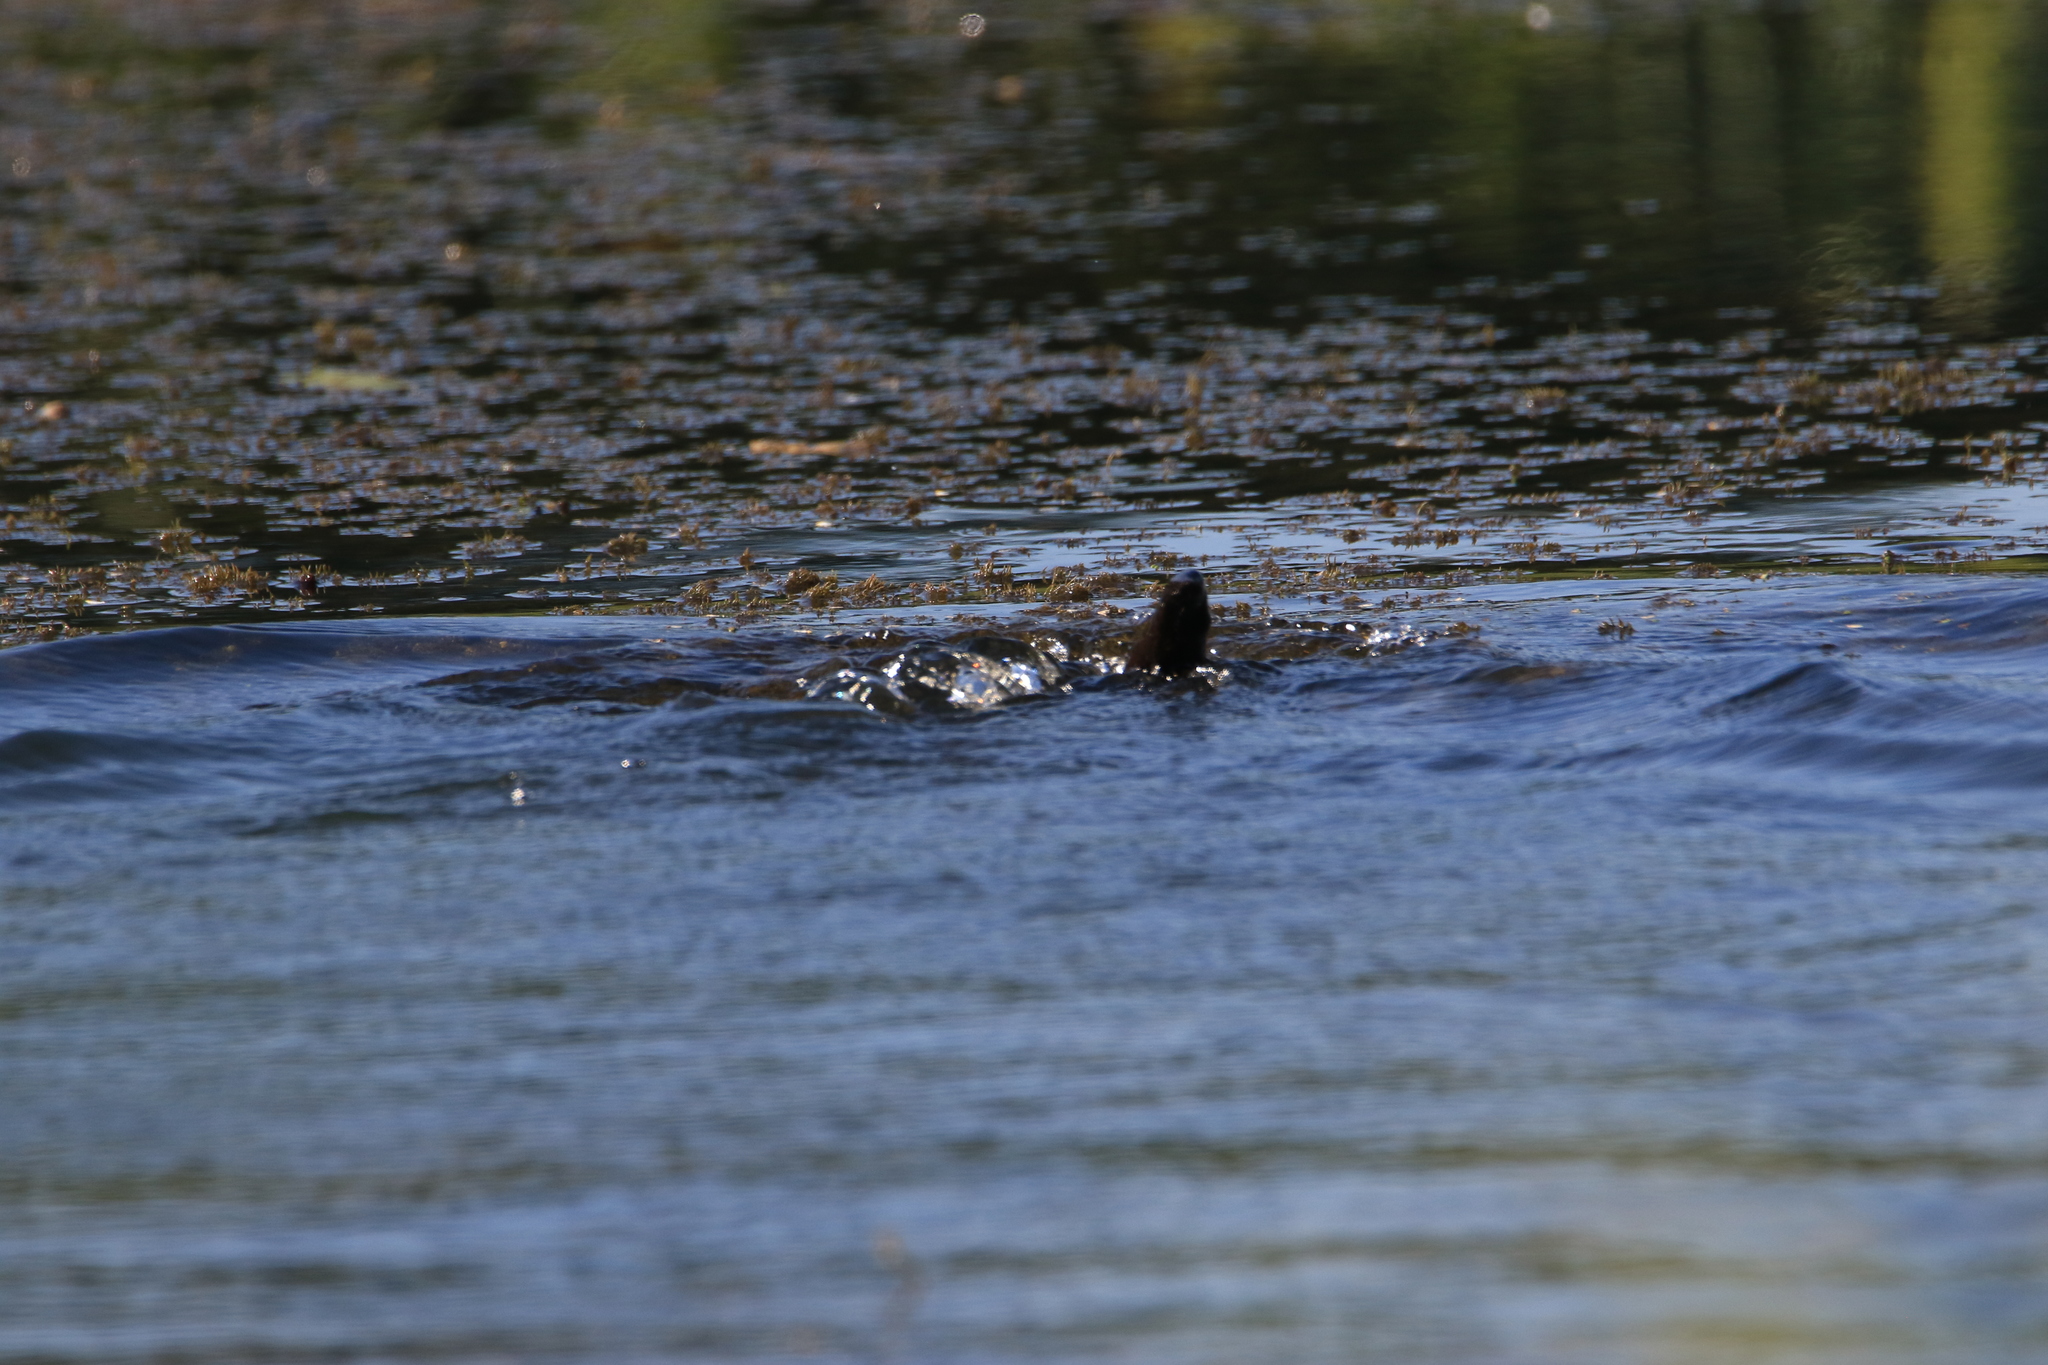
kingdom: Animalia
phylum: Chordata
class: Mammalia
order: Carnivora
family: Mustelidae
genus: Lutra
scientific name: Lutra lutra
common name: European otter
